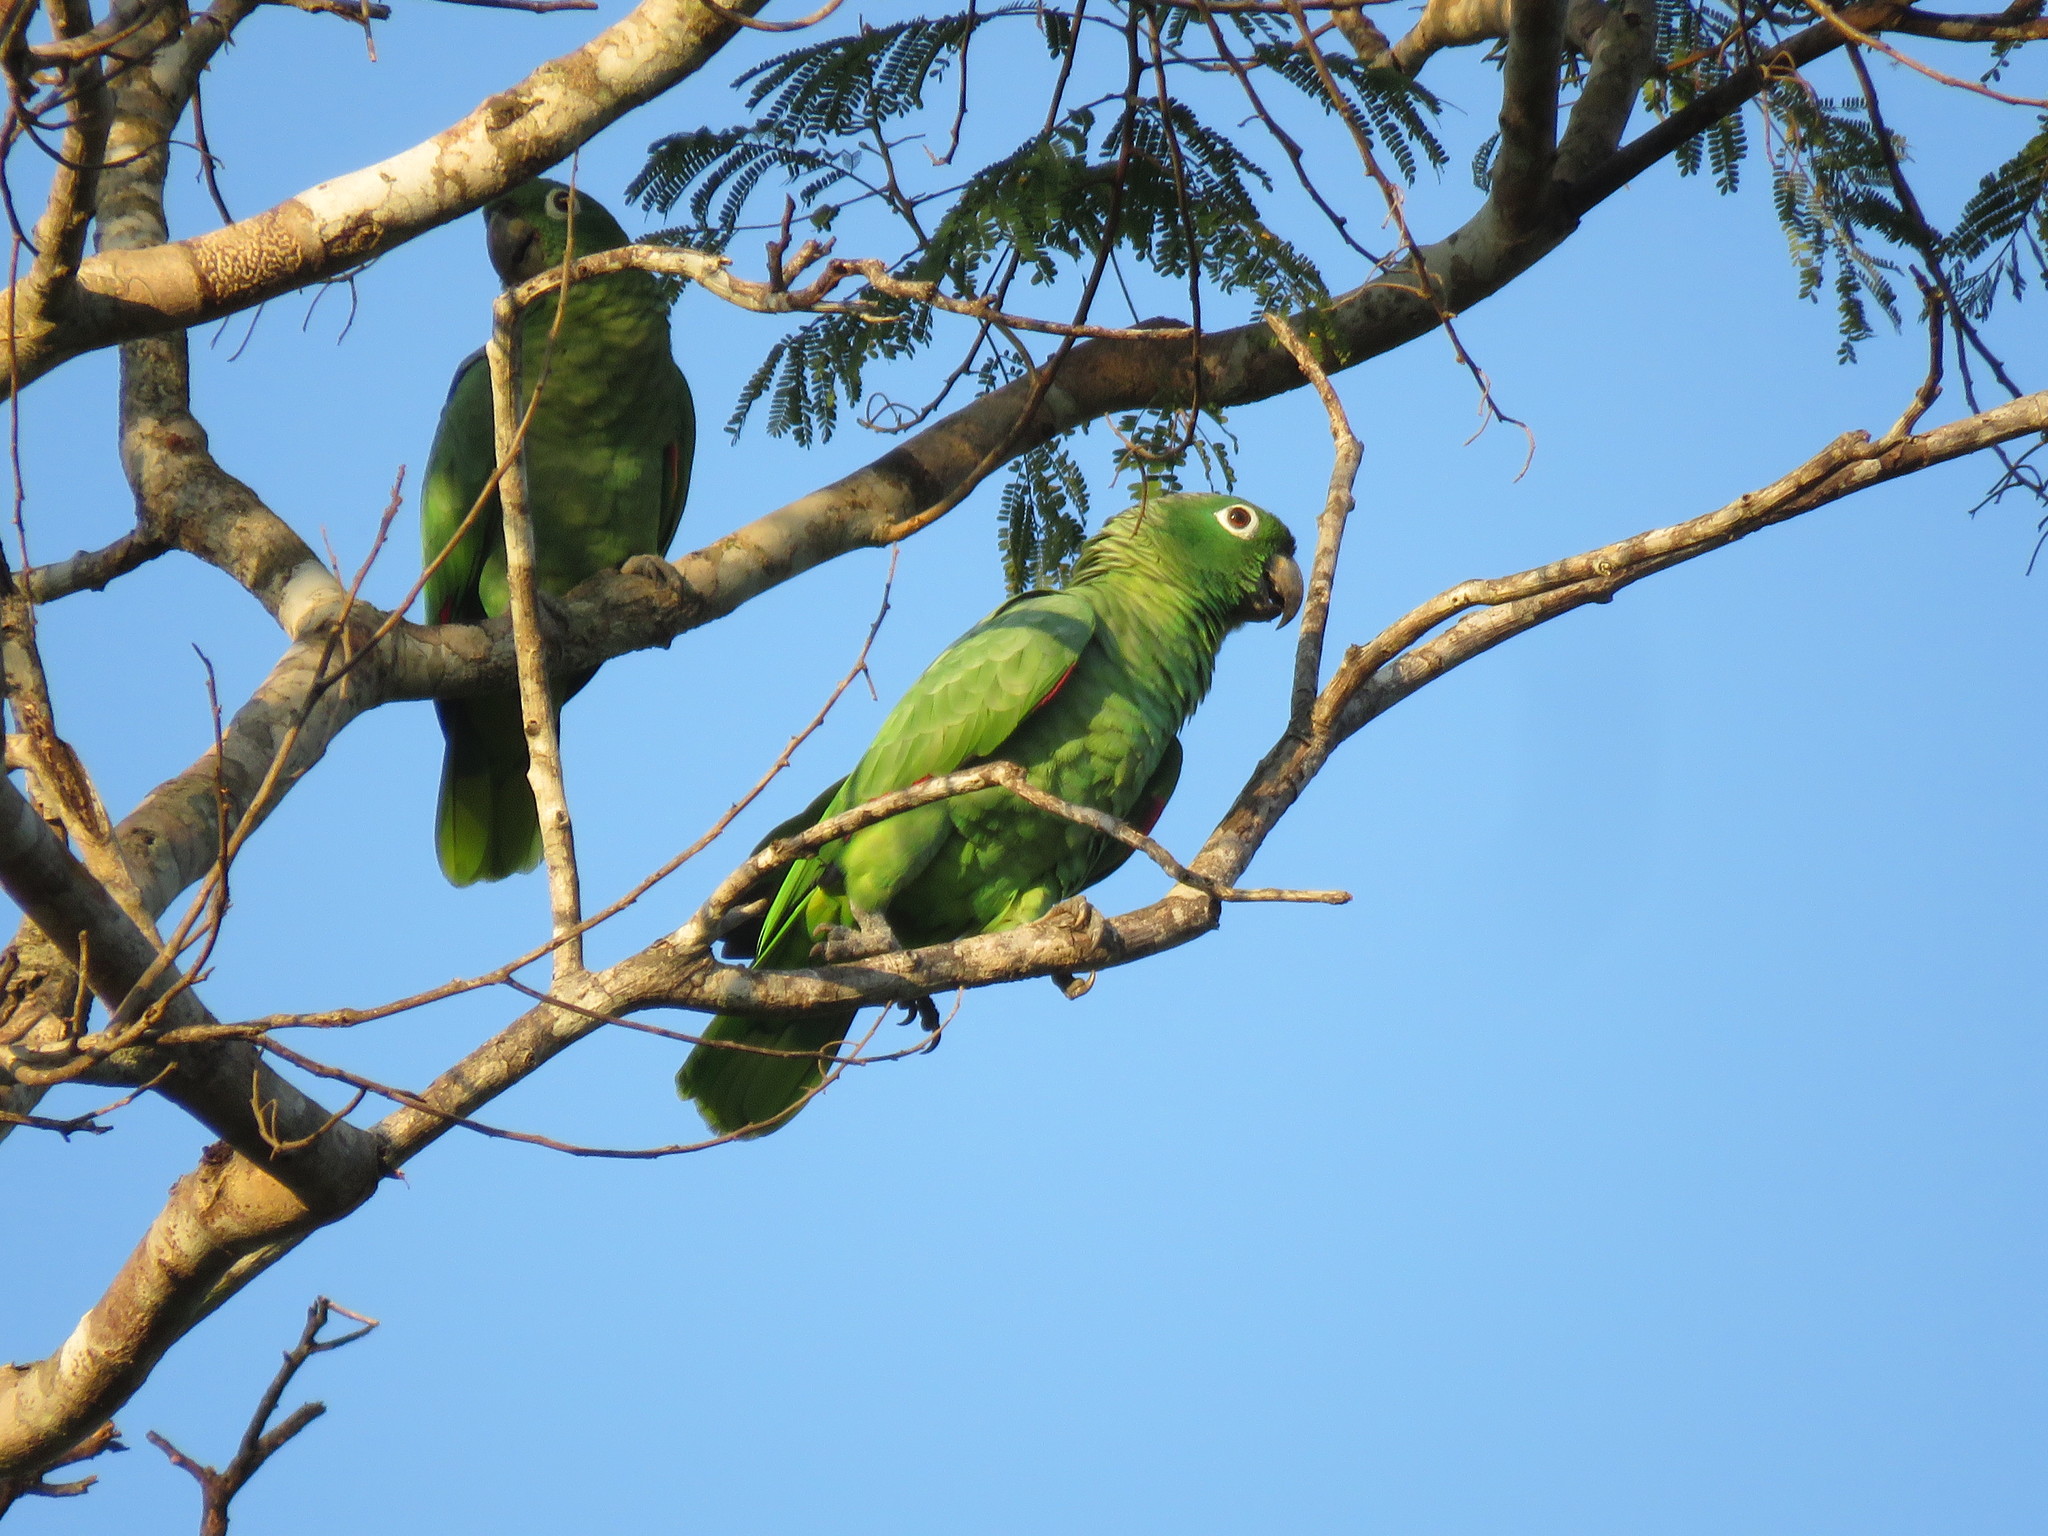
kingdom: Animalia
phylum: Chordata
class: Aves
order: Psittaciformes
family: Psittacidae
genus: Amazona
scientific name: Amazona farinosa
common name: Mealy parrot
